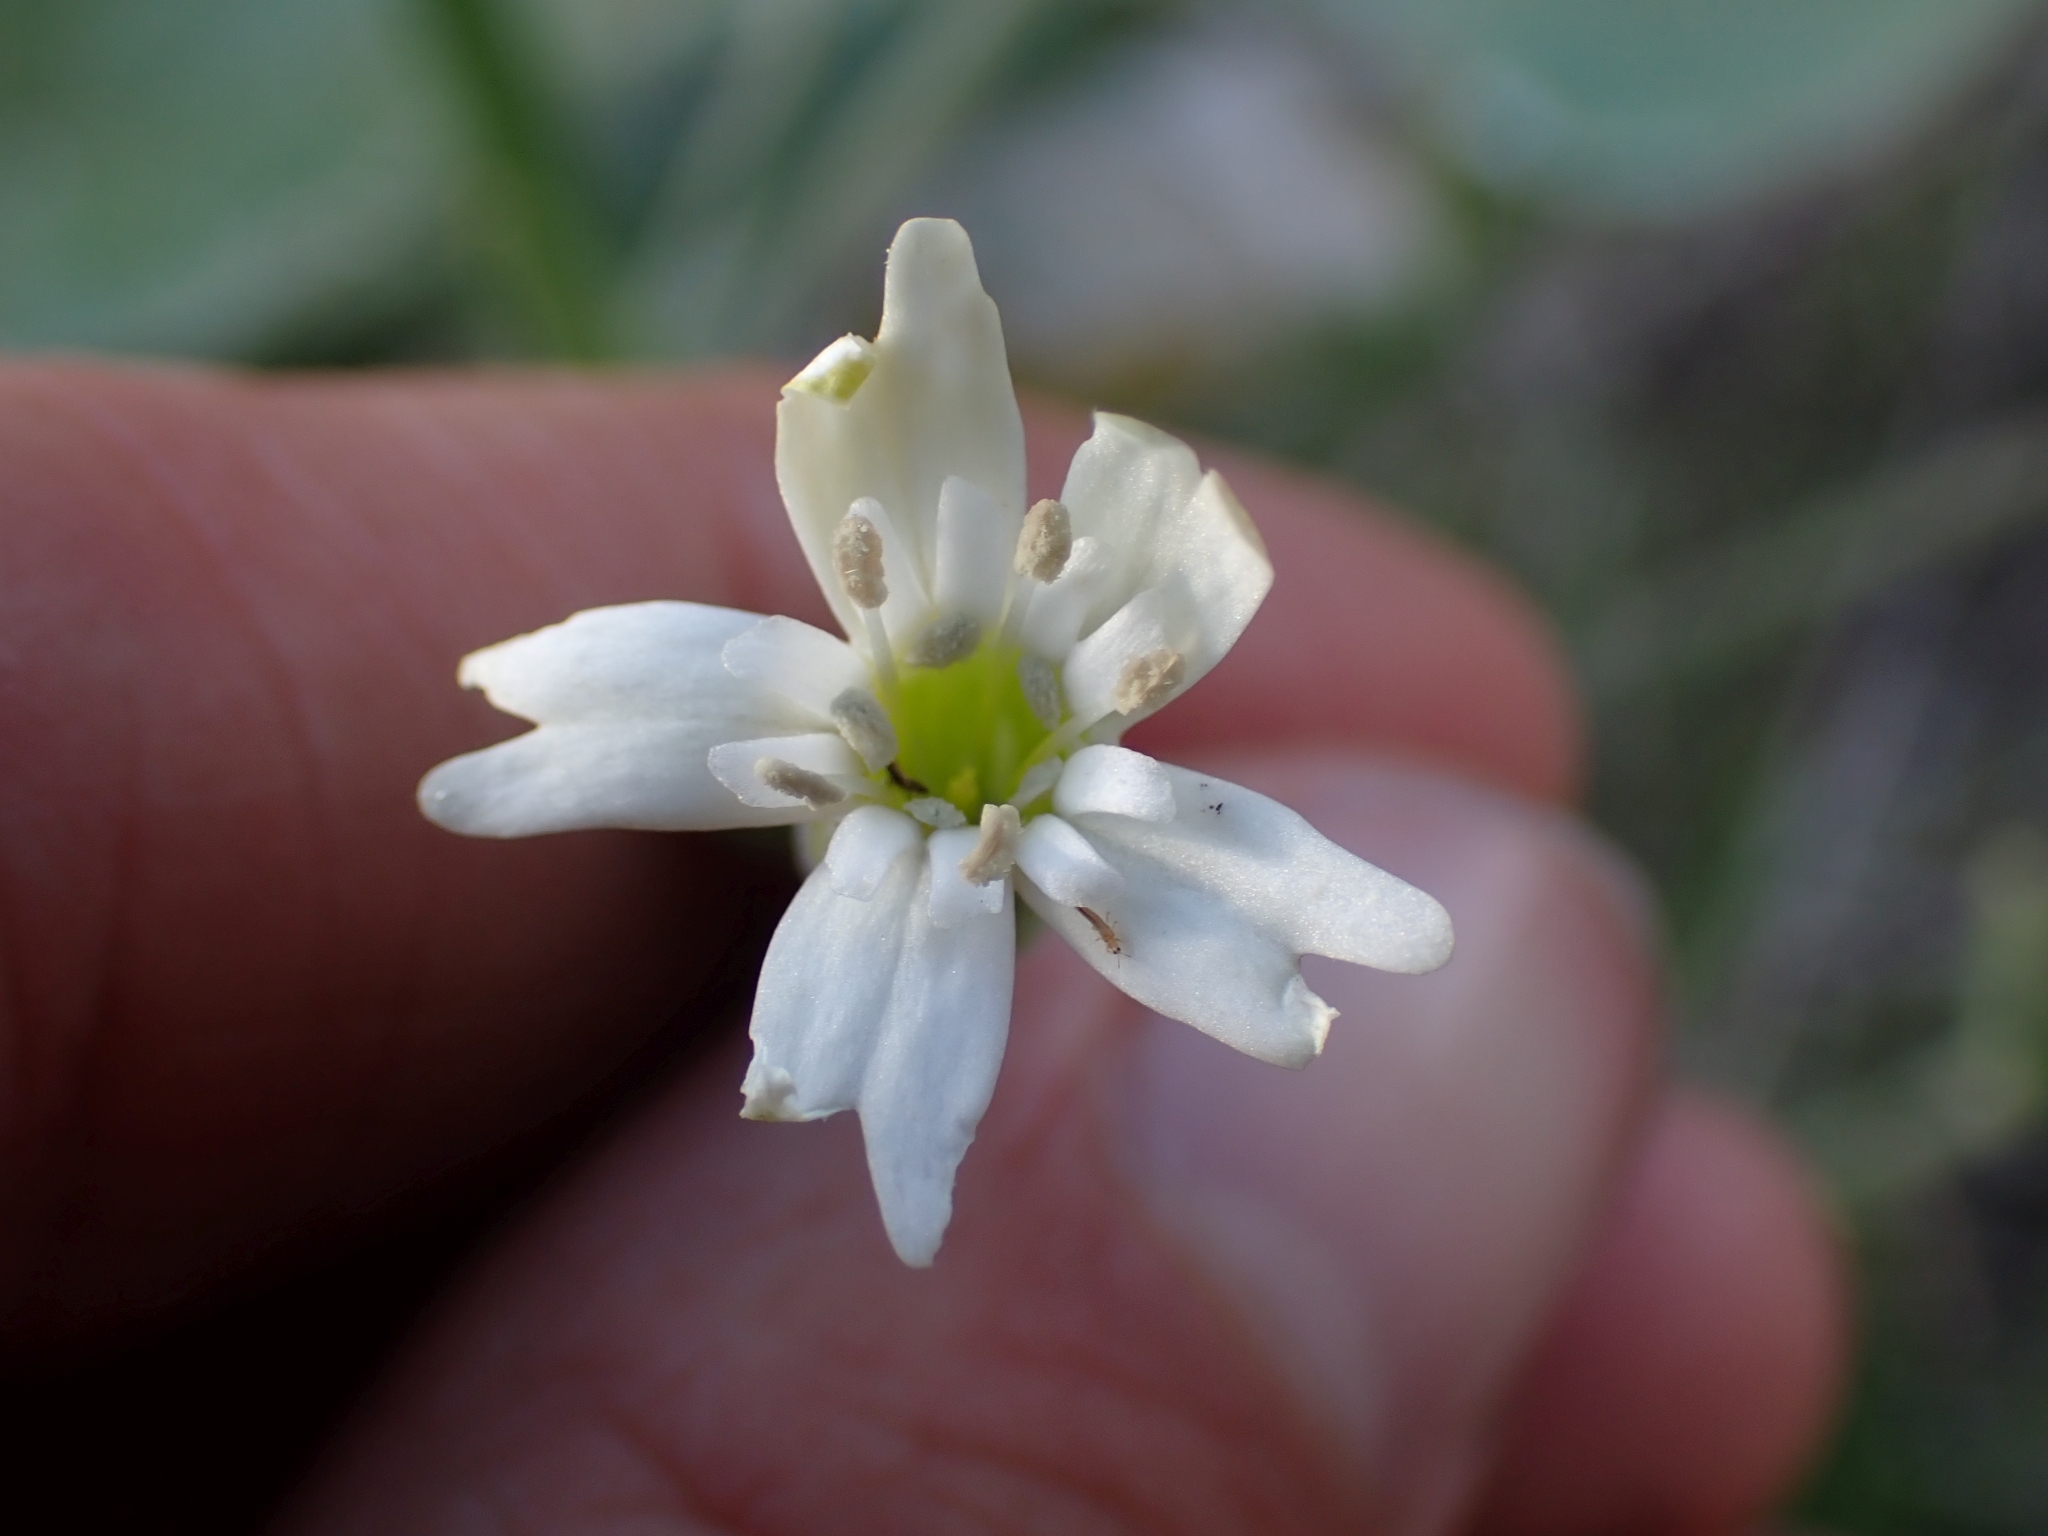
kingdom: Plantae
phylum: Tracheophyta
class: Magnoliopsida
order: Caryophyllales
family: Caryophyllaceae
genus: Silene
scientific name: Silene douglasii
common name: Douglas's catchfly
